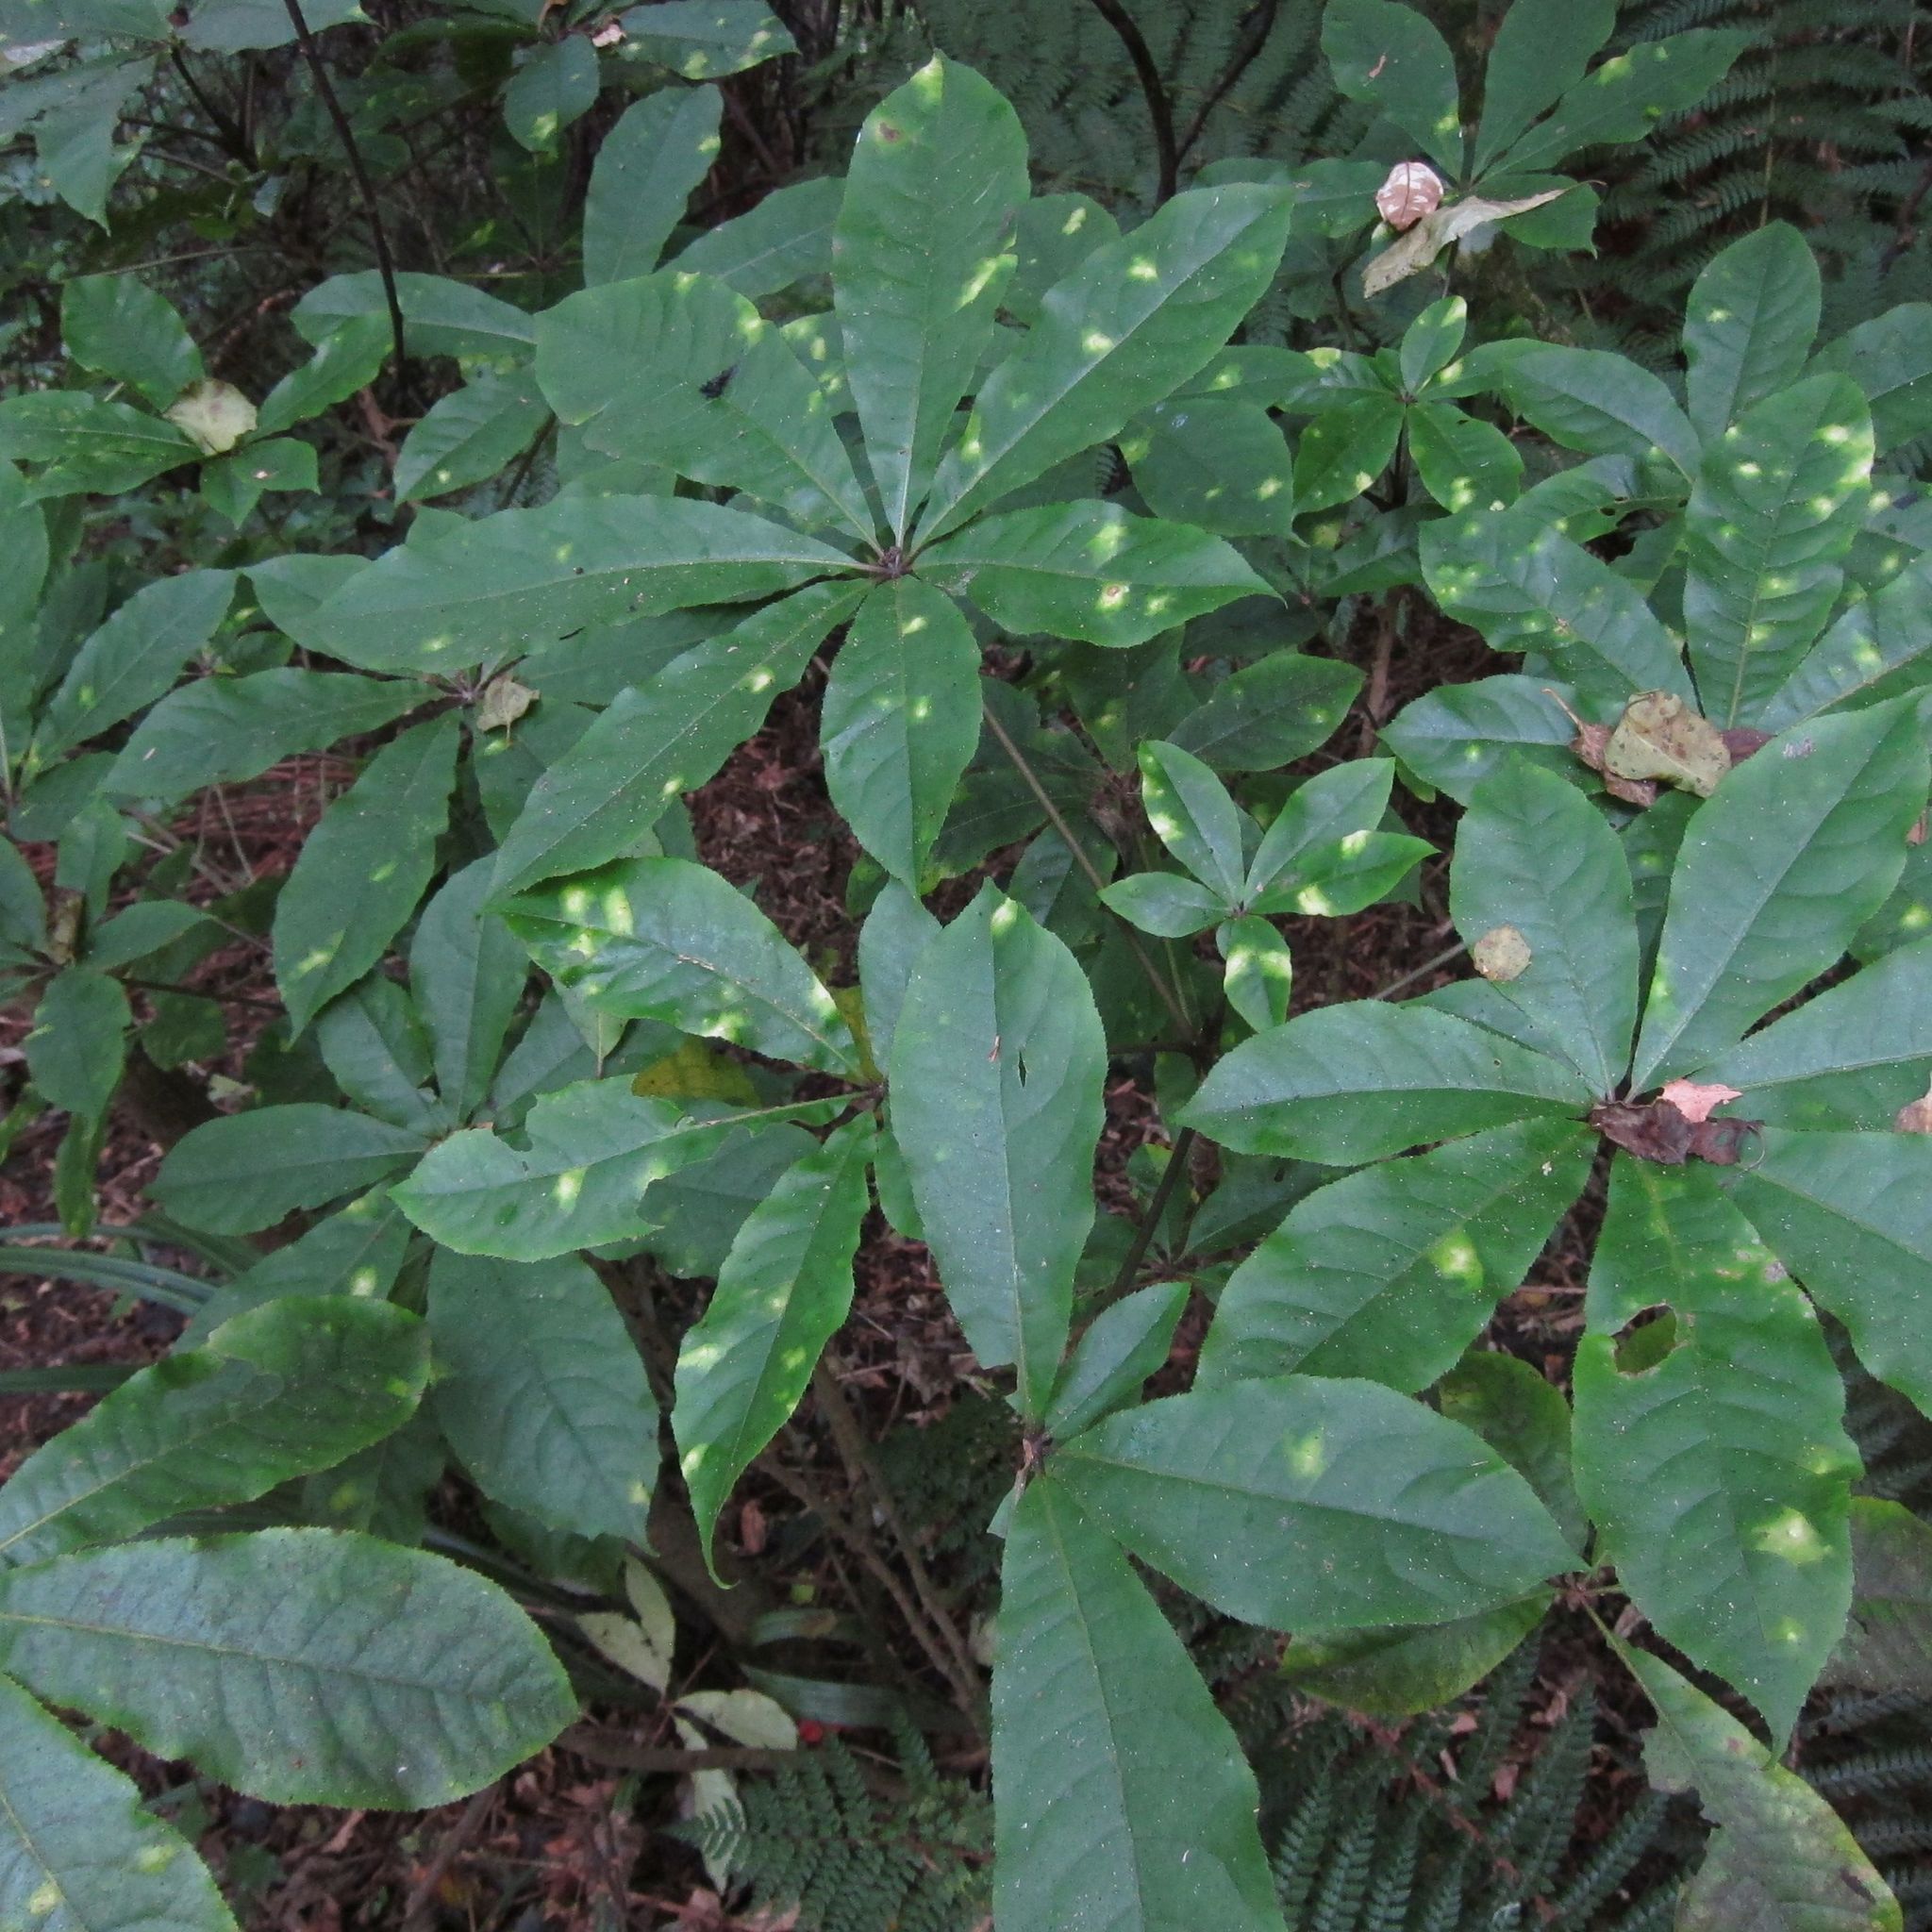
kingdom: Plantae
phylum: Tracheophyta
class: Magnoliopsida
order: Apiales
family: Araliaceae
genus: Schefflera
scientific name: Schefflera digitata
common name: Pate
